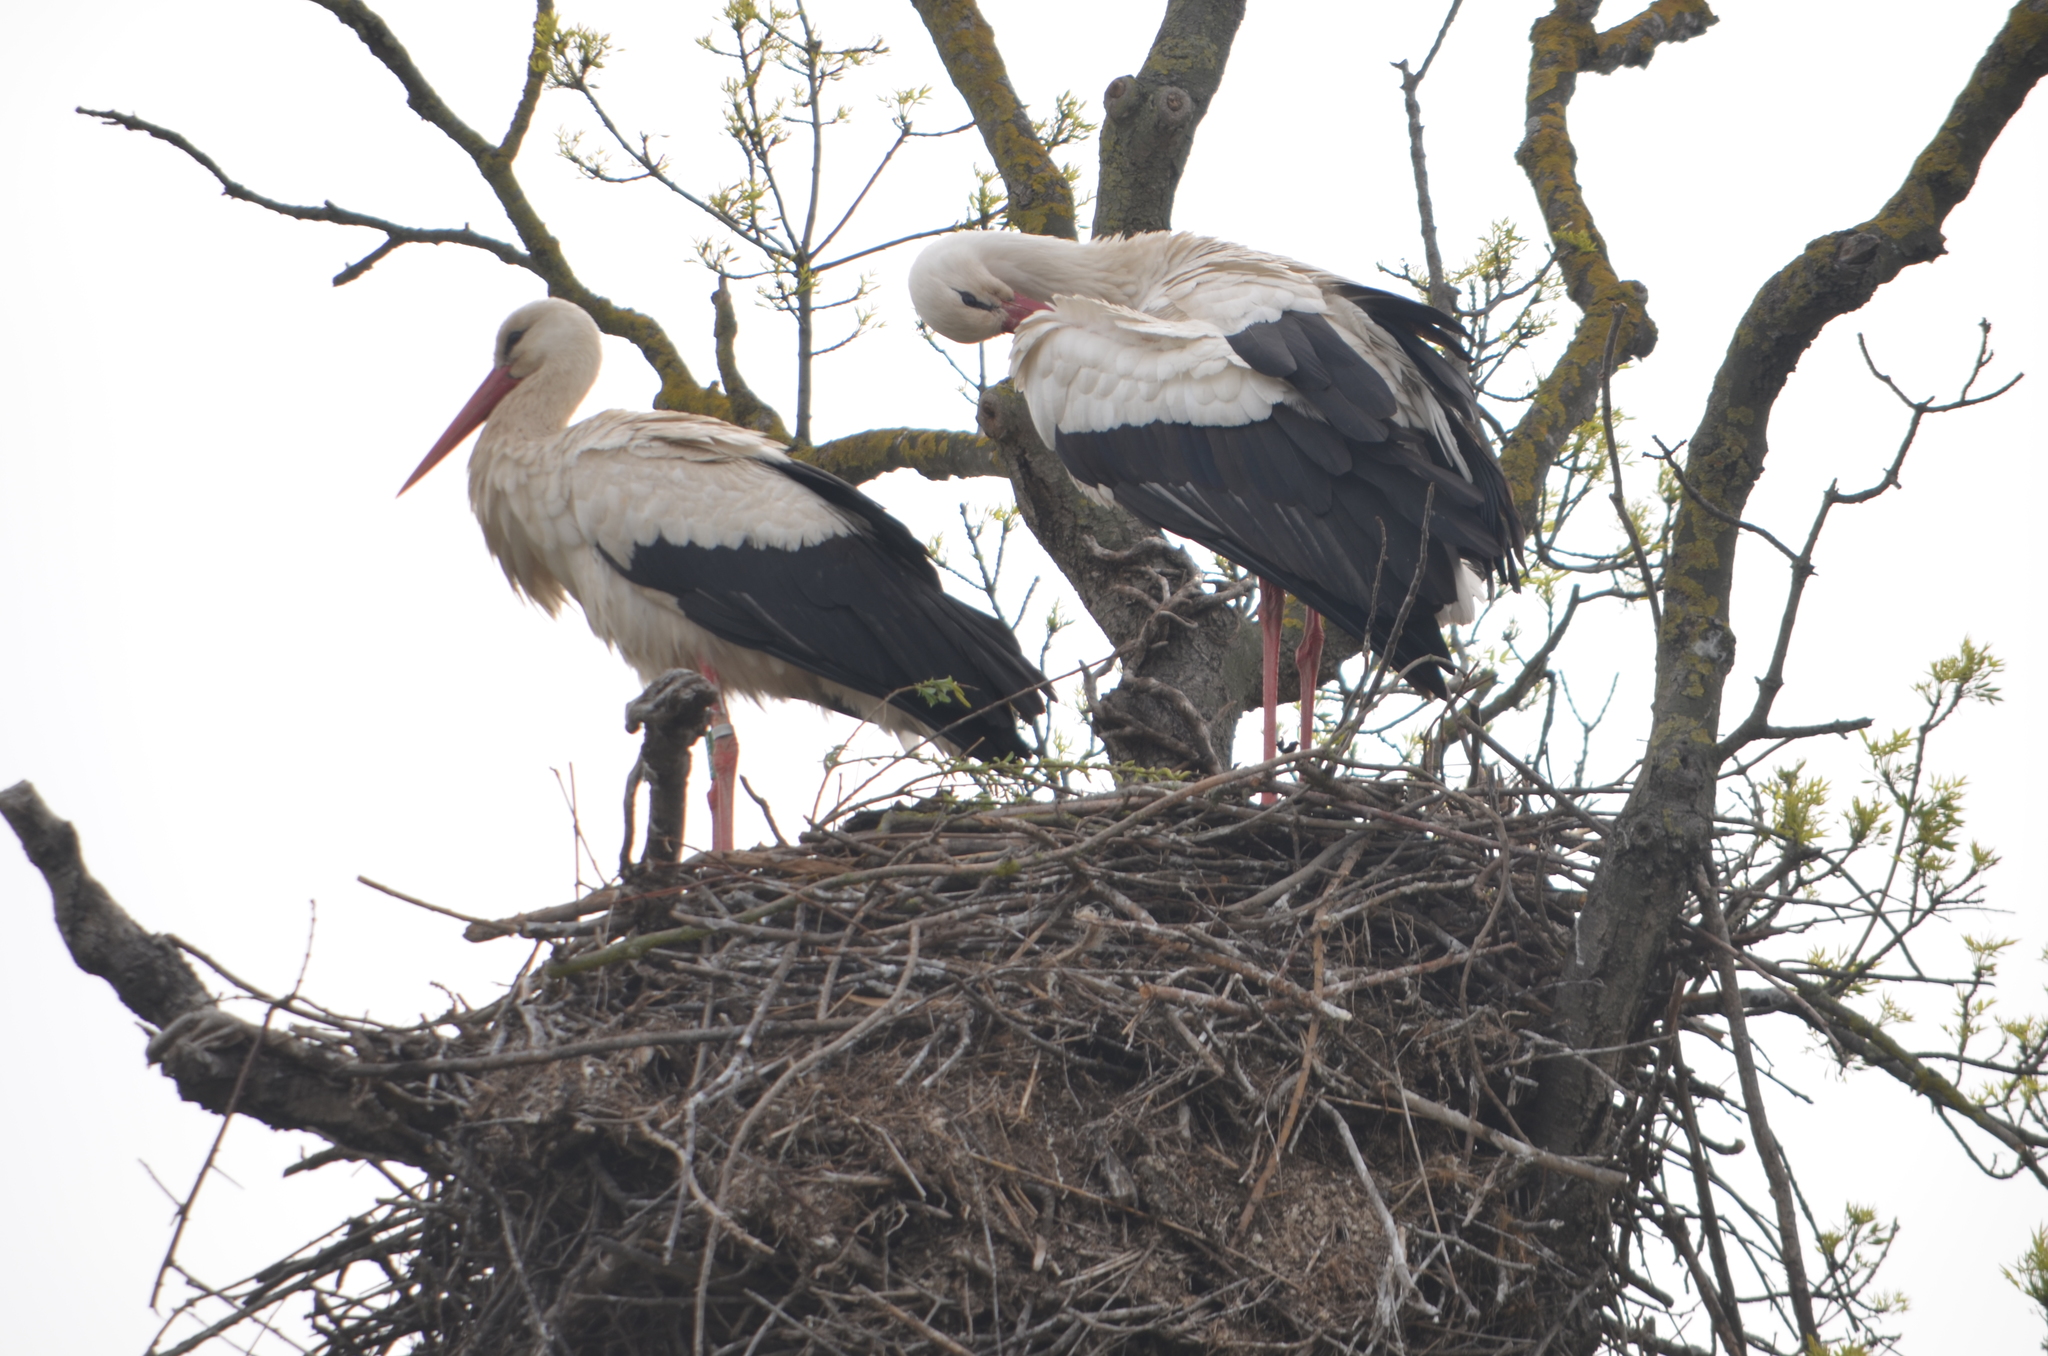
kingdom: Animalia
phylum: Chordata
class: Aves
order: Ciconiiformes
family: Ciconiidae
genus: Ciconia
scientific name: Ciconia ciconia
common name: White stork
